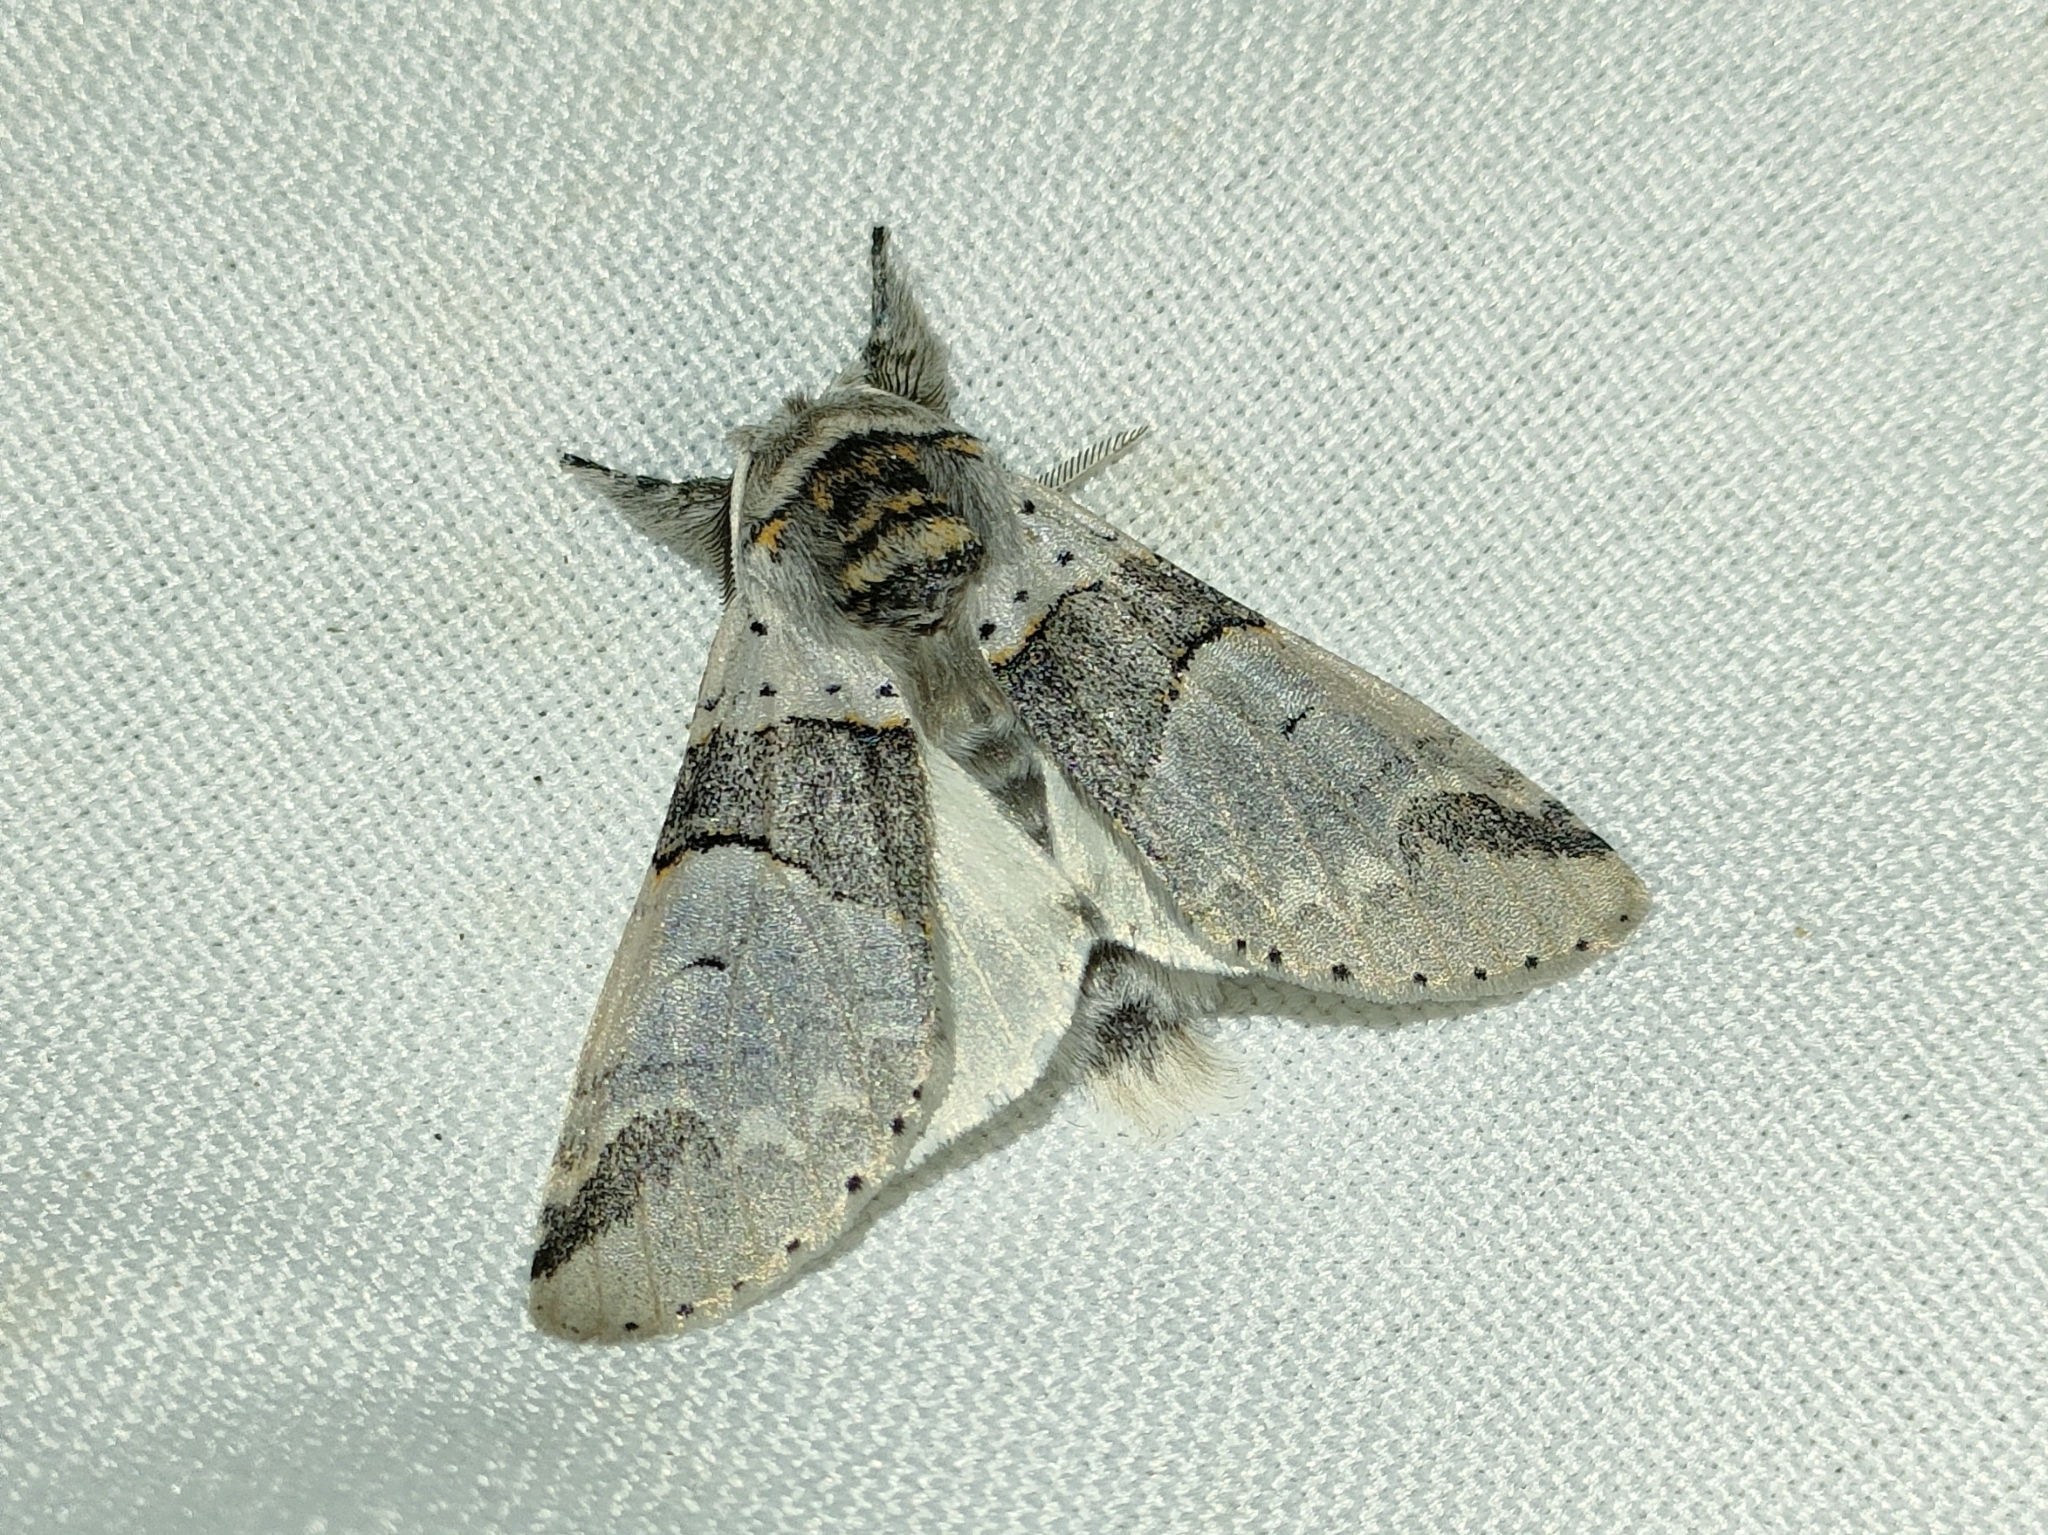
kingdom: Animalia
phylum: Arthropoda
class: Insecta
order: Lepidoptera
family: Notodontidae
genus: Furcula
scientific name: Furcula bifida
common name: Poplar kitten
